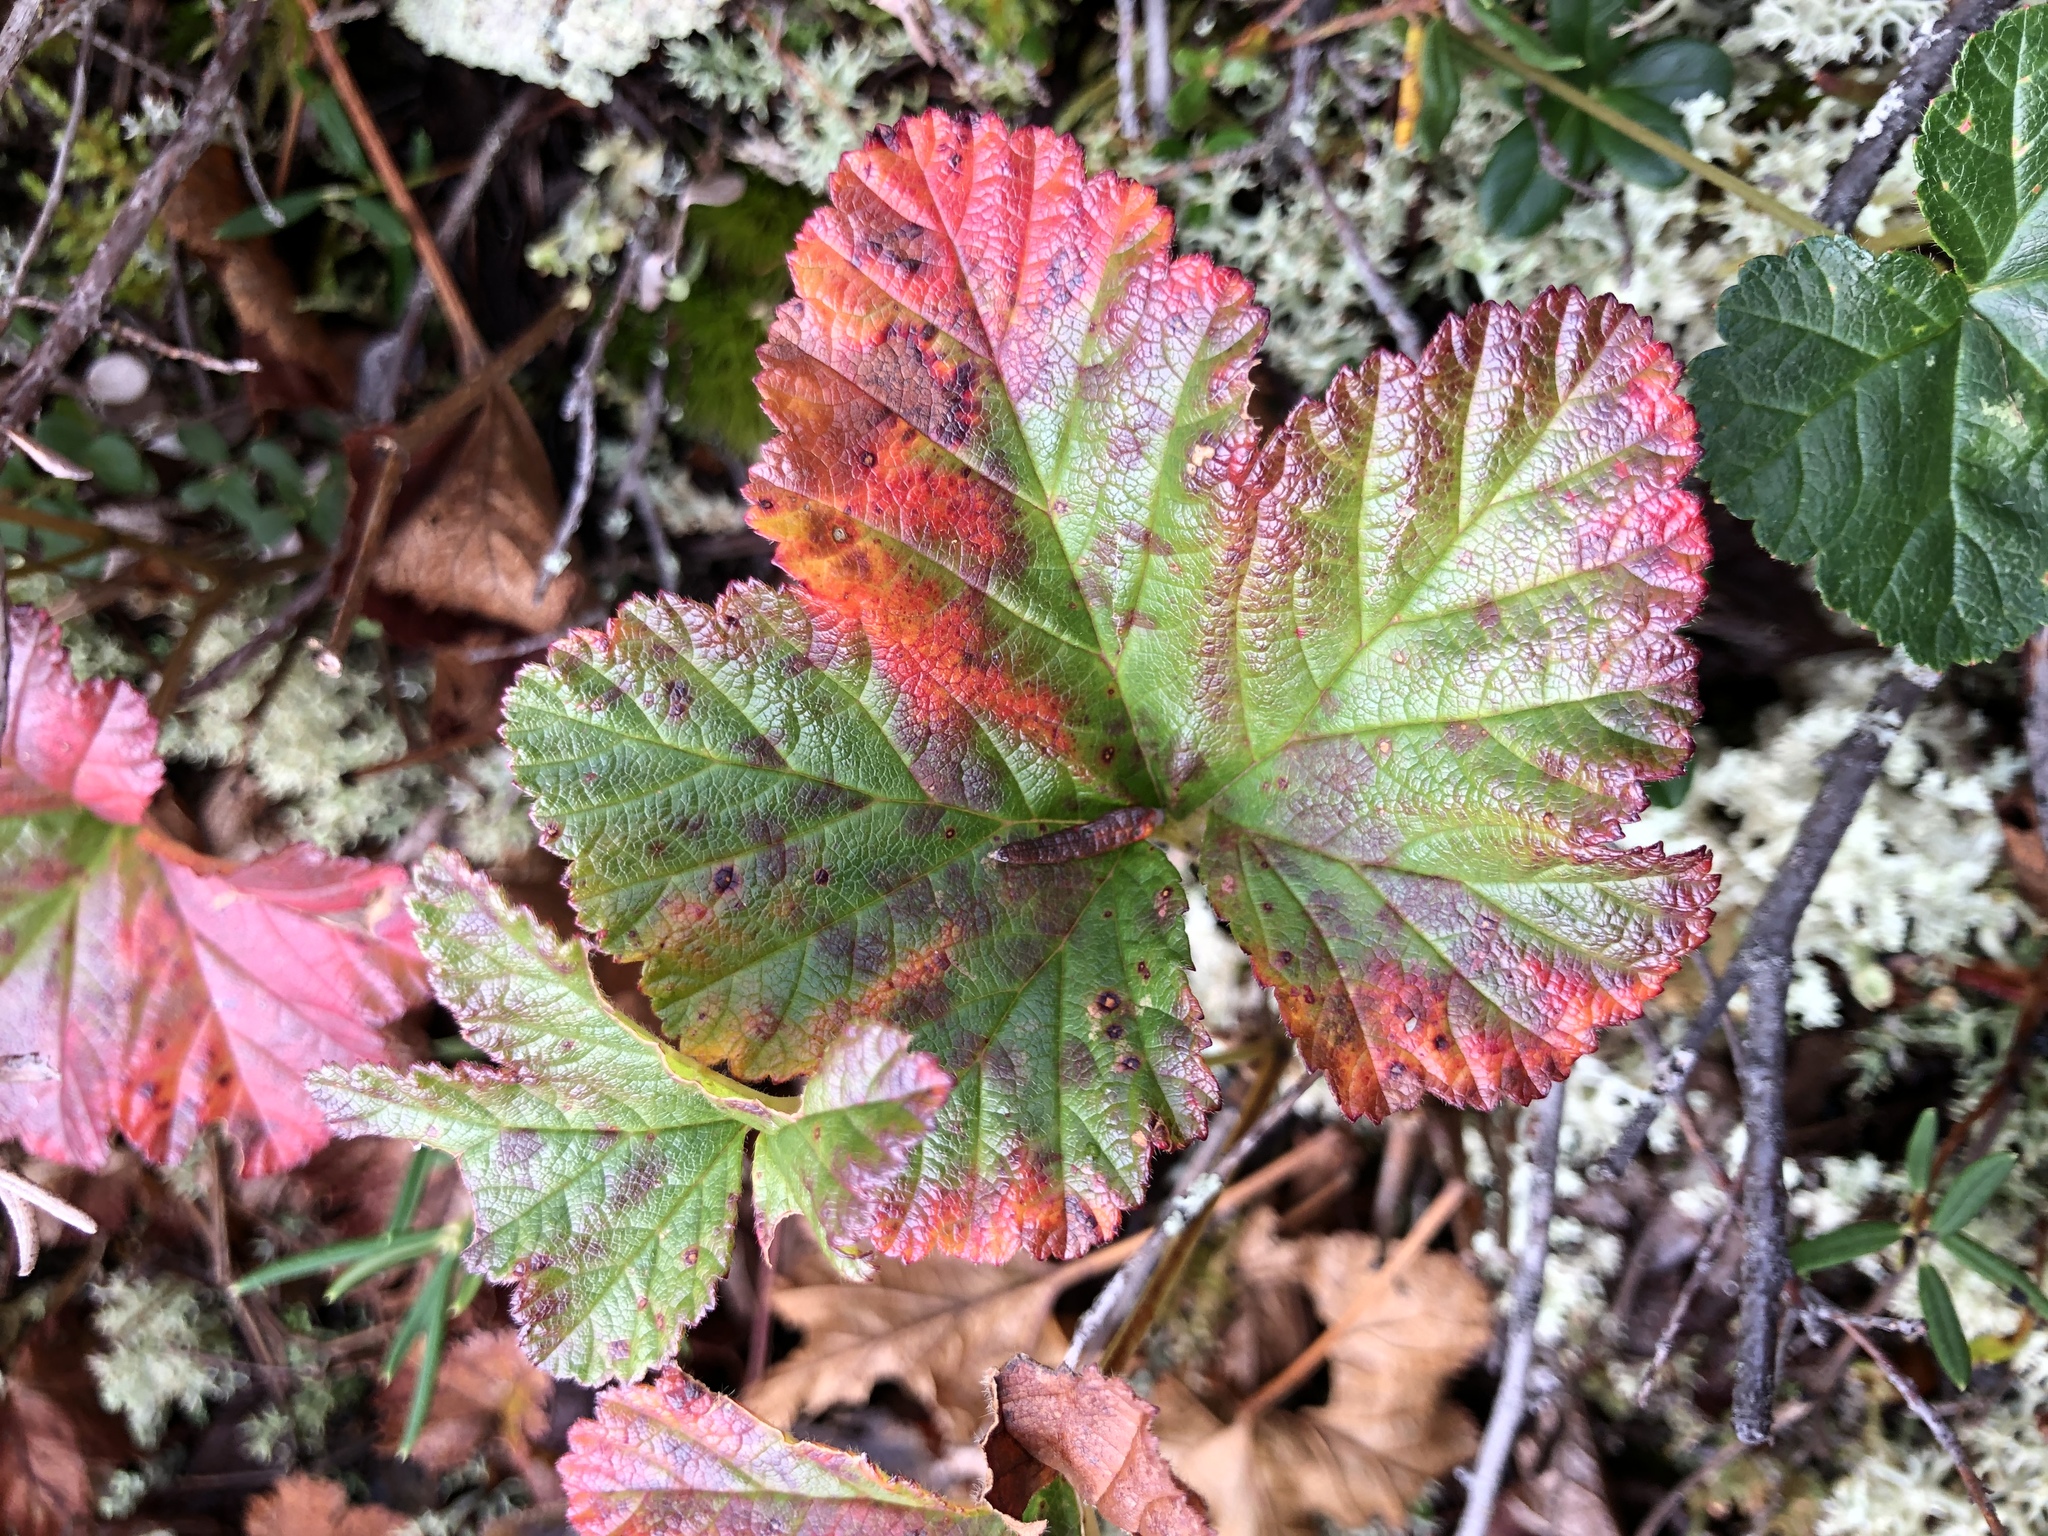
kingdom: Plantae
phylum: Tracheophyta
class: Magnoliopsida
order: Rosales
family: Rosaceae
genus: Rubus
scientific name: Rubus chamaemorus
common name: Cloudberry
